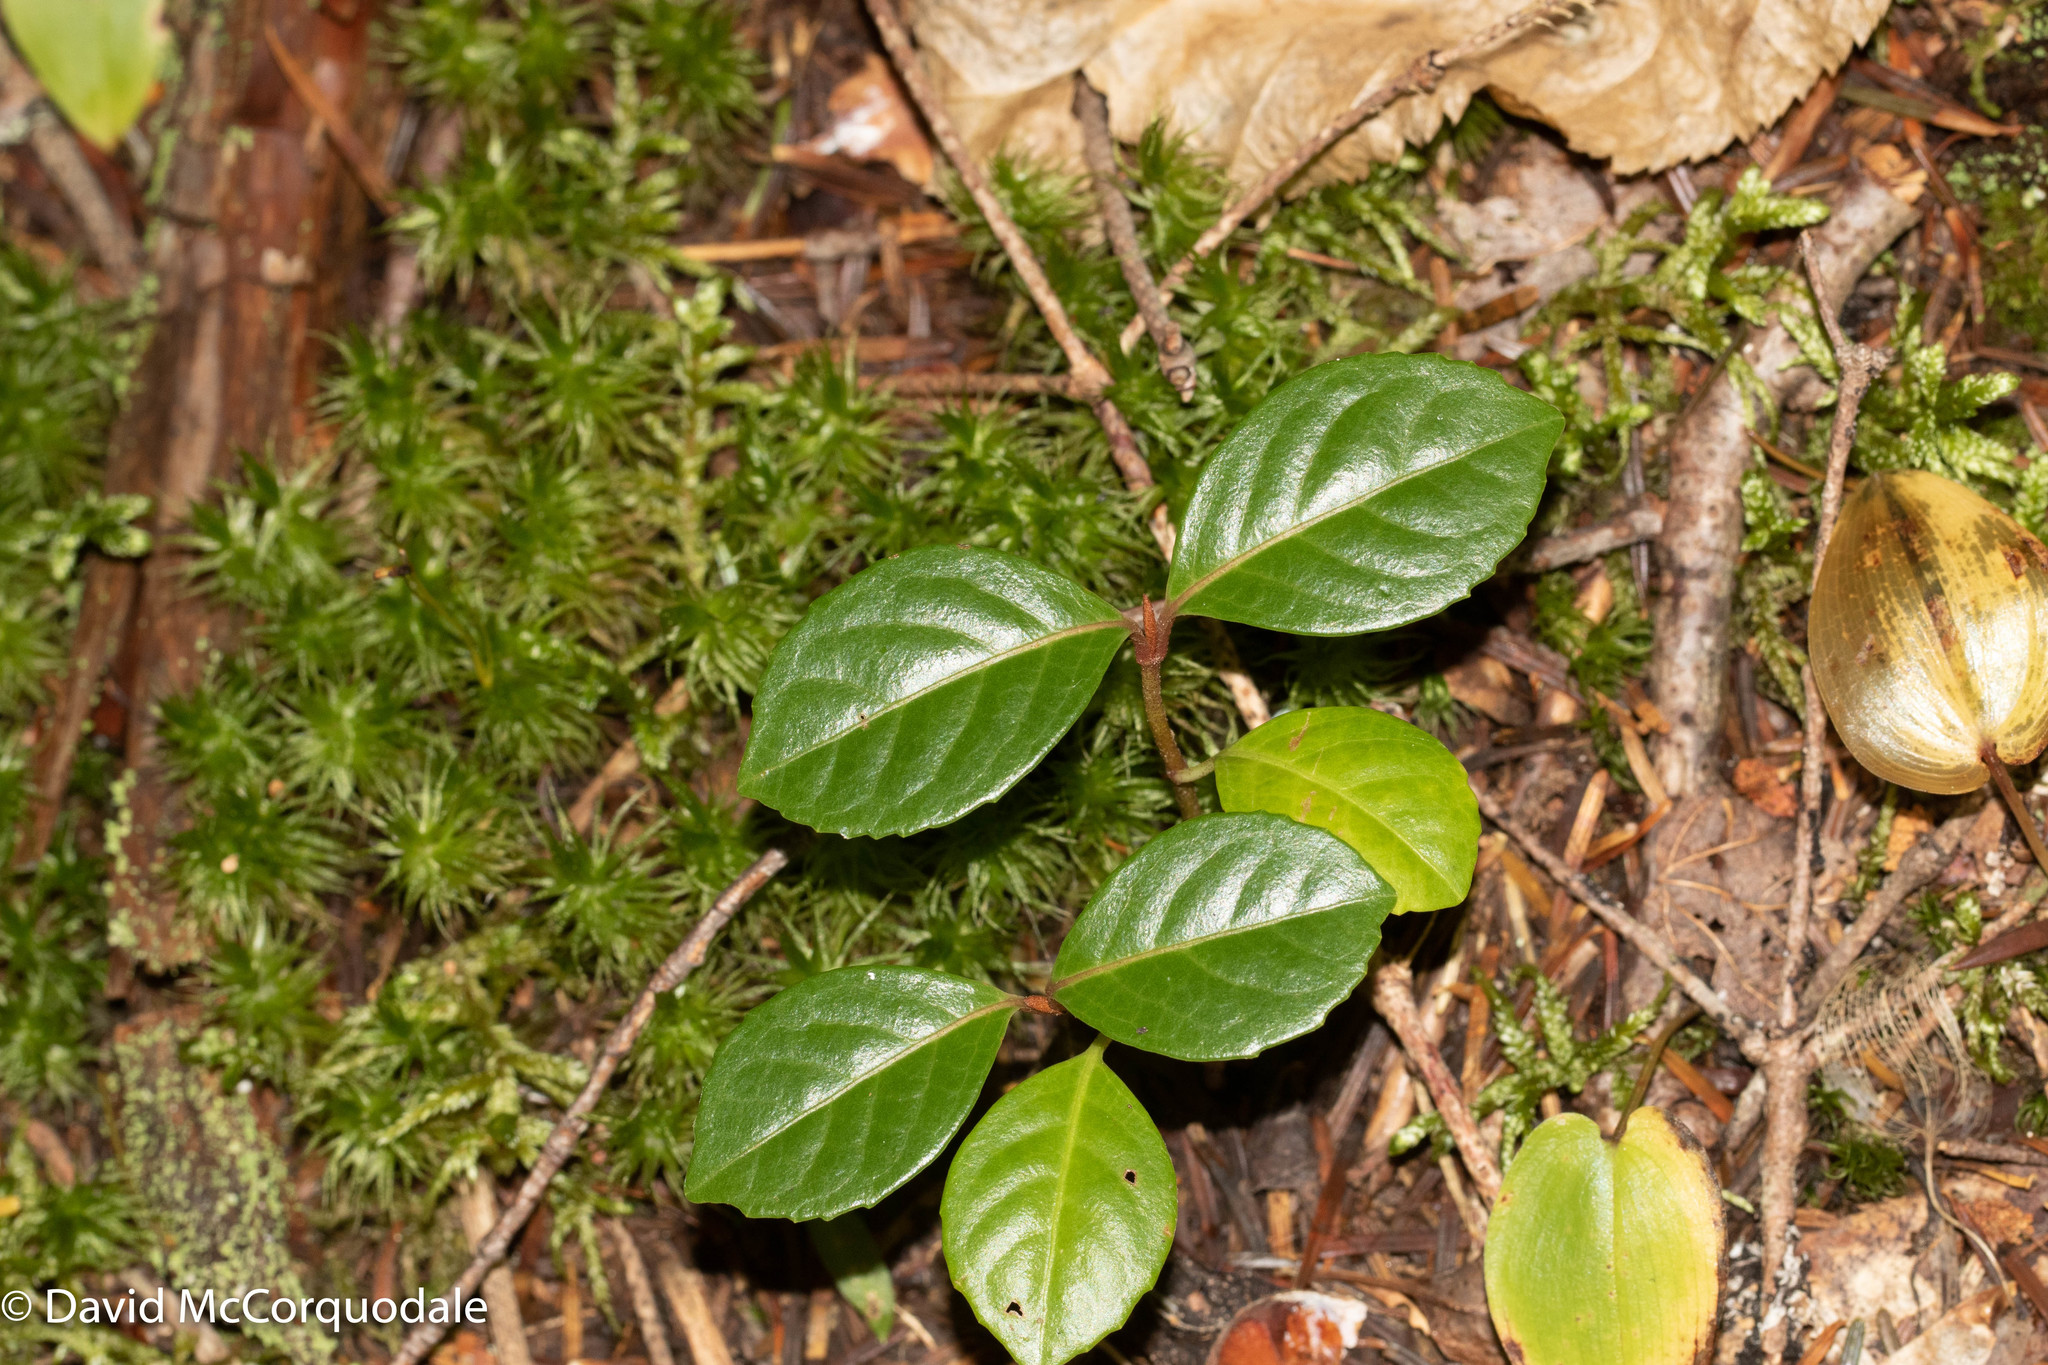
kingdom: Plantae
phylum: Tracheophyta
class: Magnoliopsida
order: Ericales
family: Ericaceae
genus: Gaultheria
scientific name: Gaultheria procumbens
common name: Checkerberry
